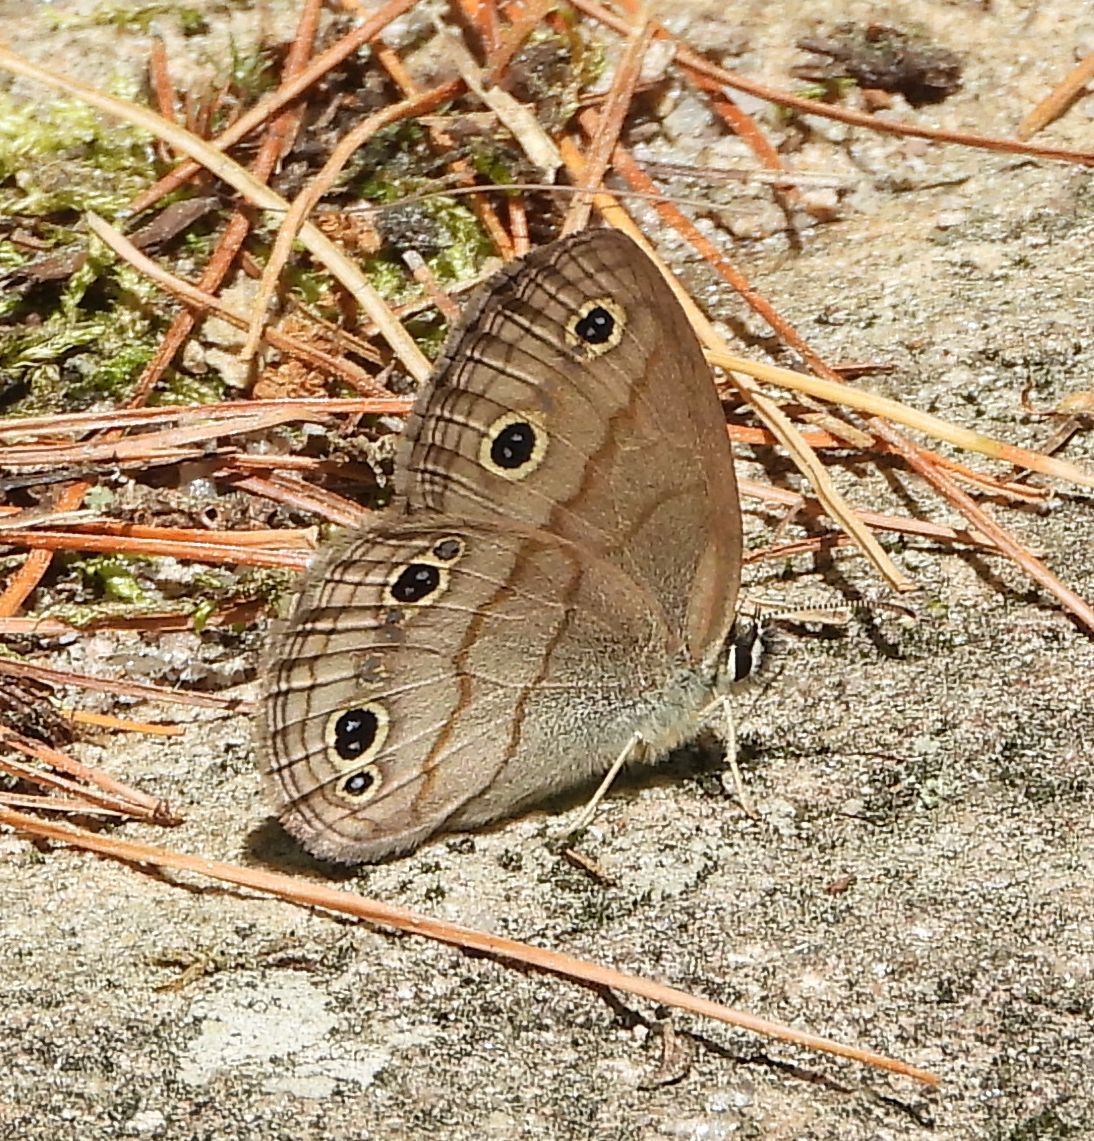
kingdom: Animalia
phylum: Arthropoda
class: Insecta
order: Lepidoptera
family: Nymphalidae
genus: Euptychia
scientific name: Euptychia cymela
